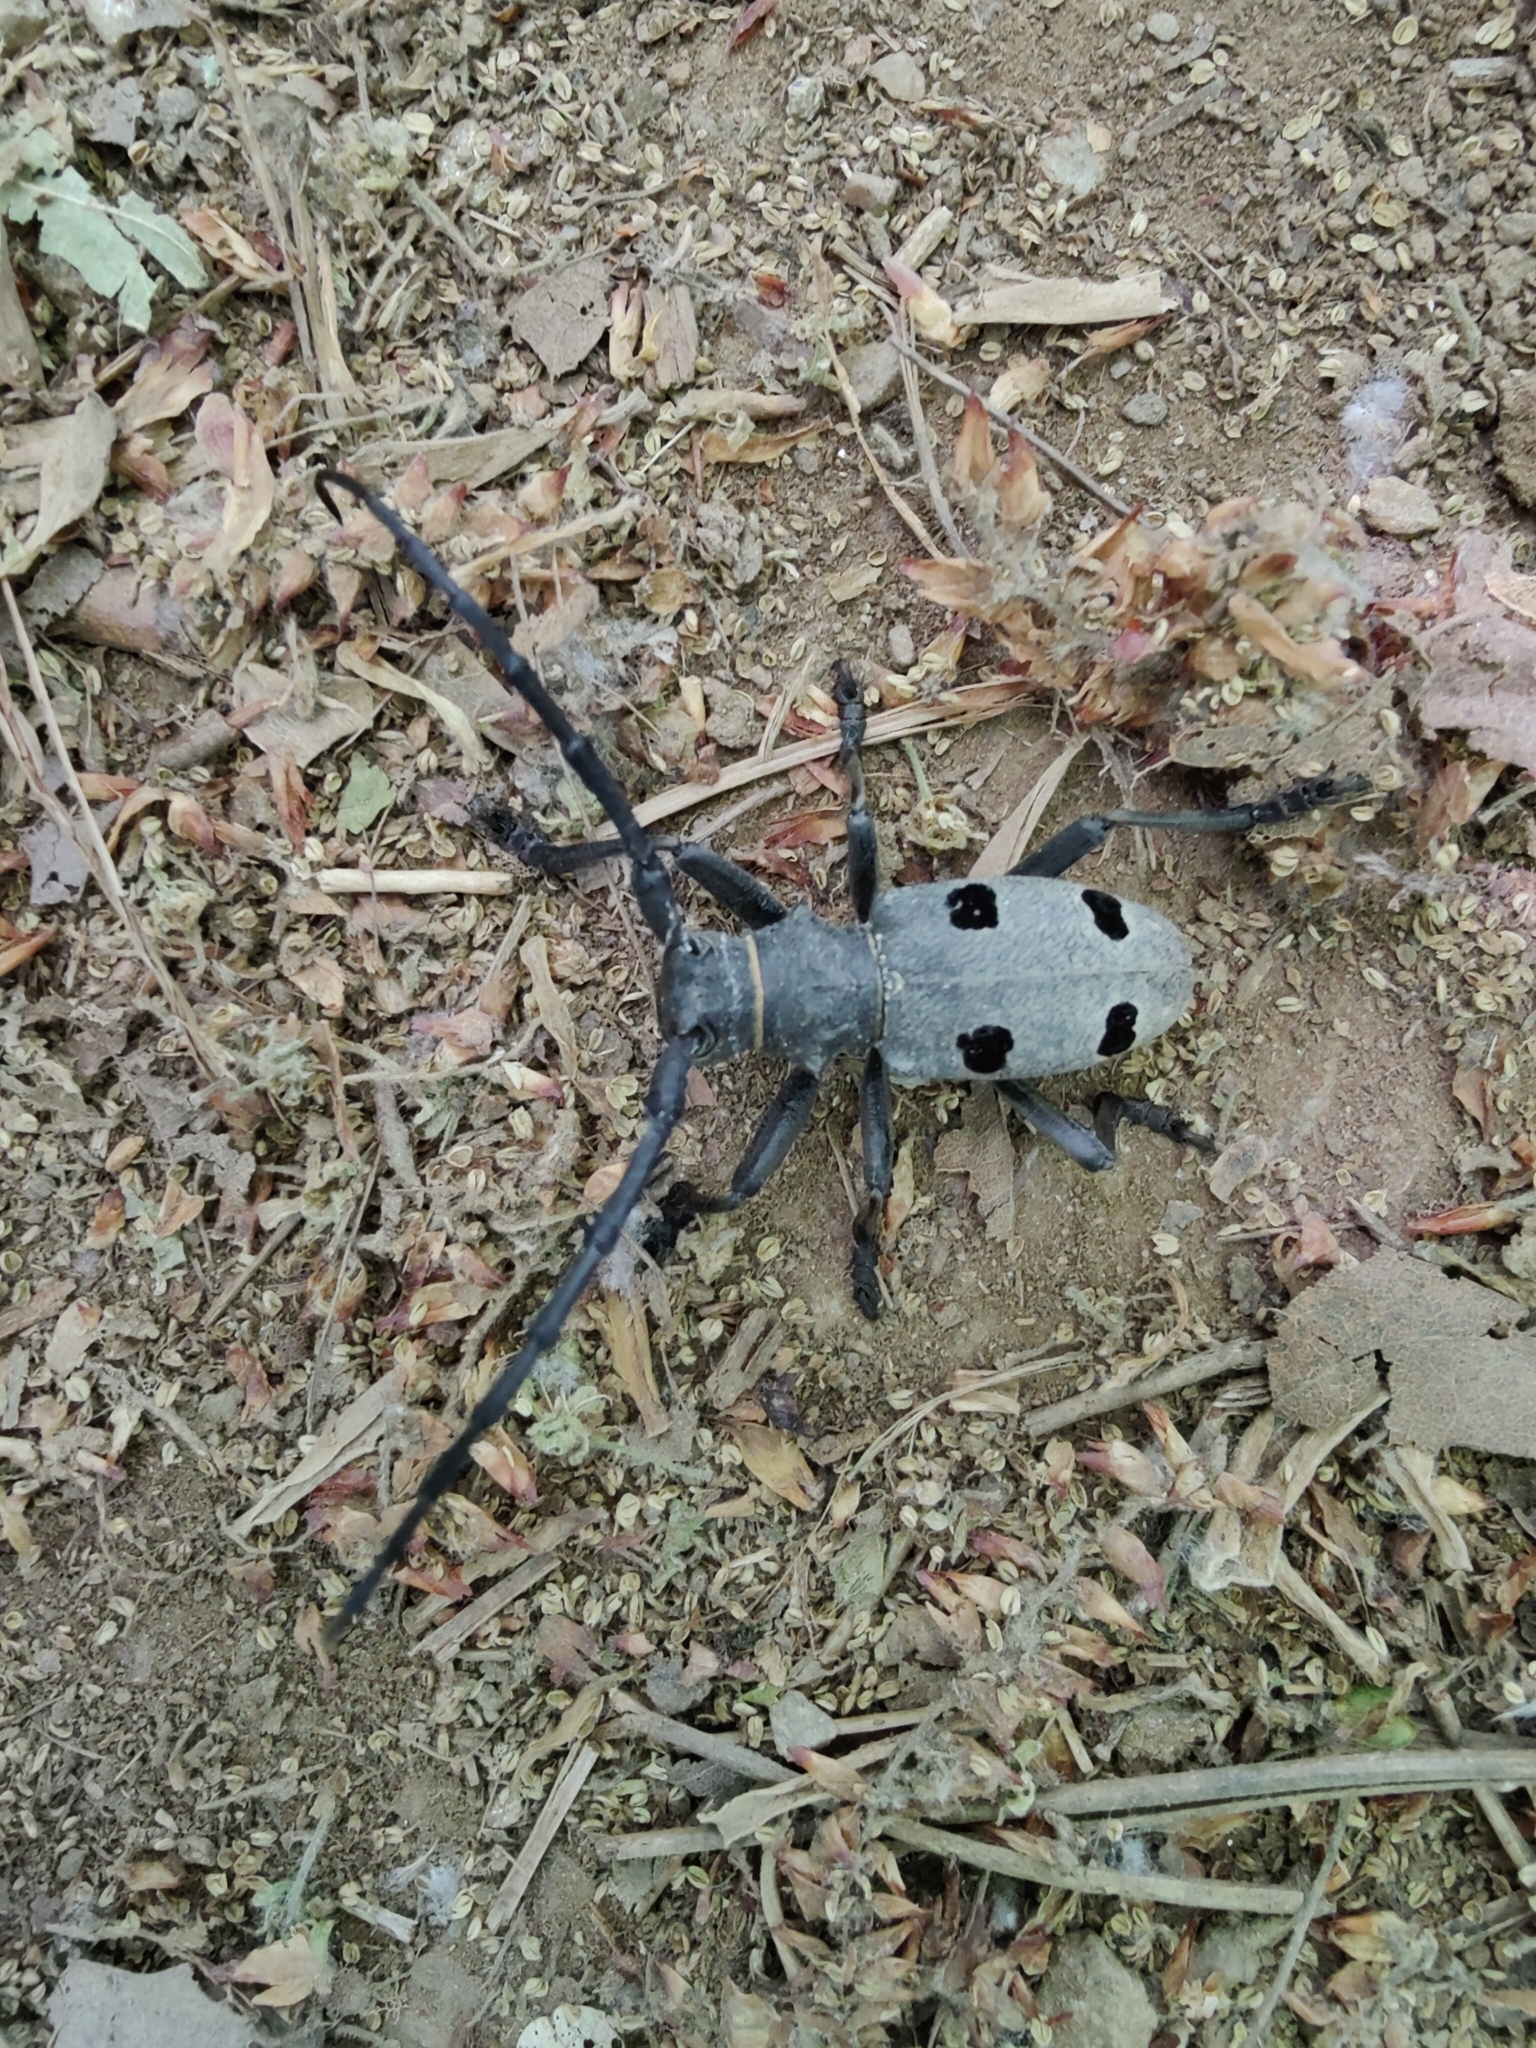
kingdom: Animalia
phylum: Arthropoda
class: Insecta
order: Coleoptera
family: Cerambycidae
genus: Morimus
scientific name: Morimus funereus
